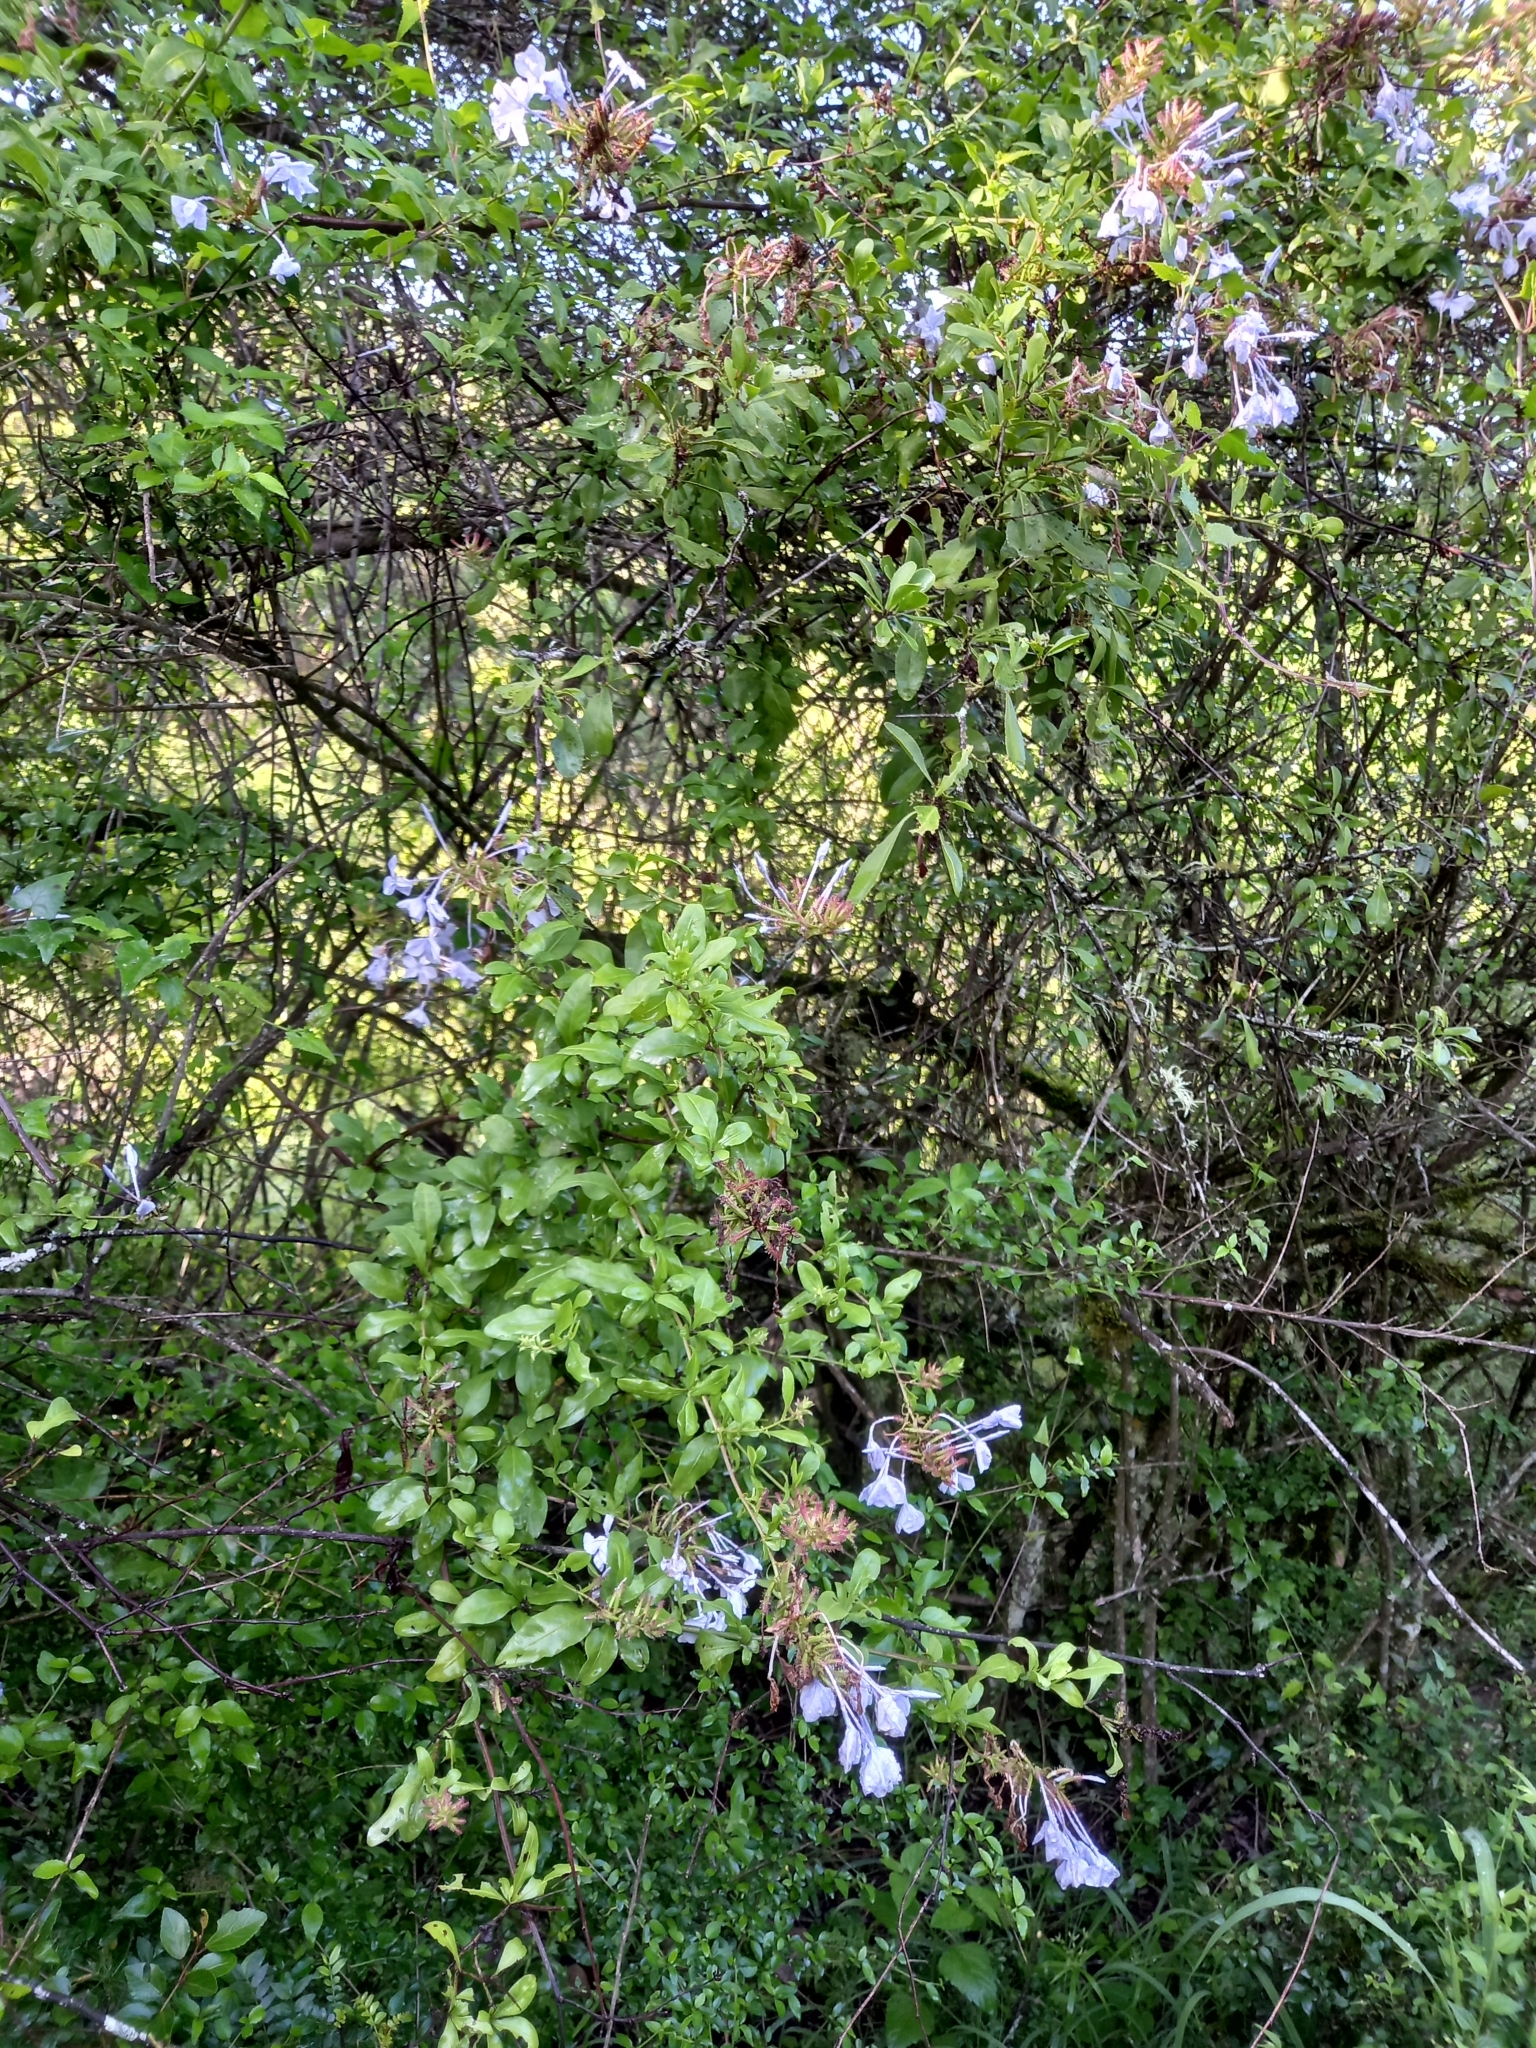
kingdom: Plantae
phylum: Tracheophyta
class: Magnoliopsida
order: Caryophyllales
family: Plumbaginaceae
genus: Plumbago
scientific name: Plumbago auriculata
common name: Cape leadwort
